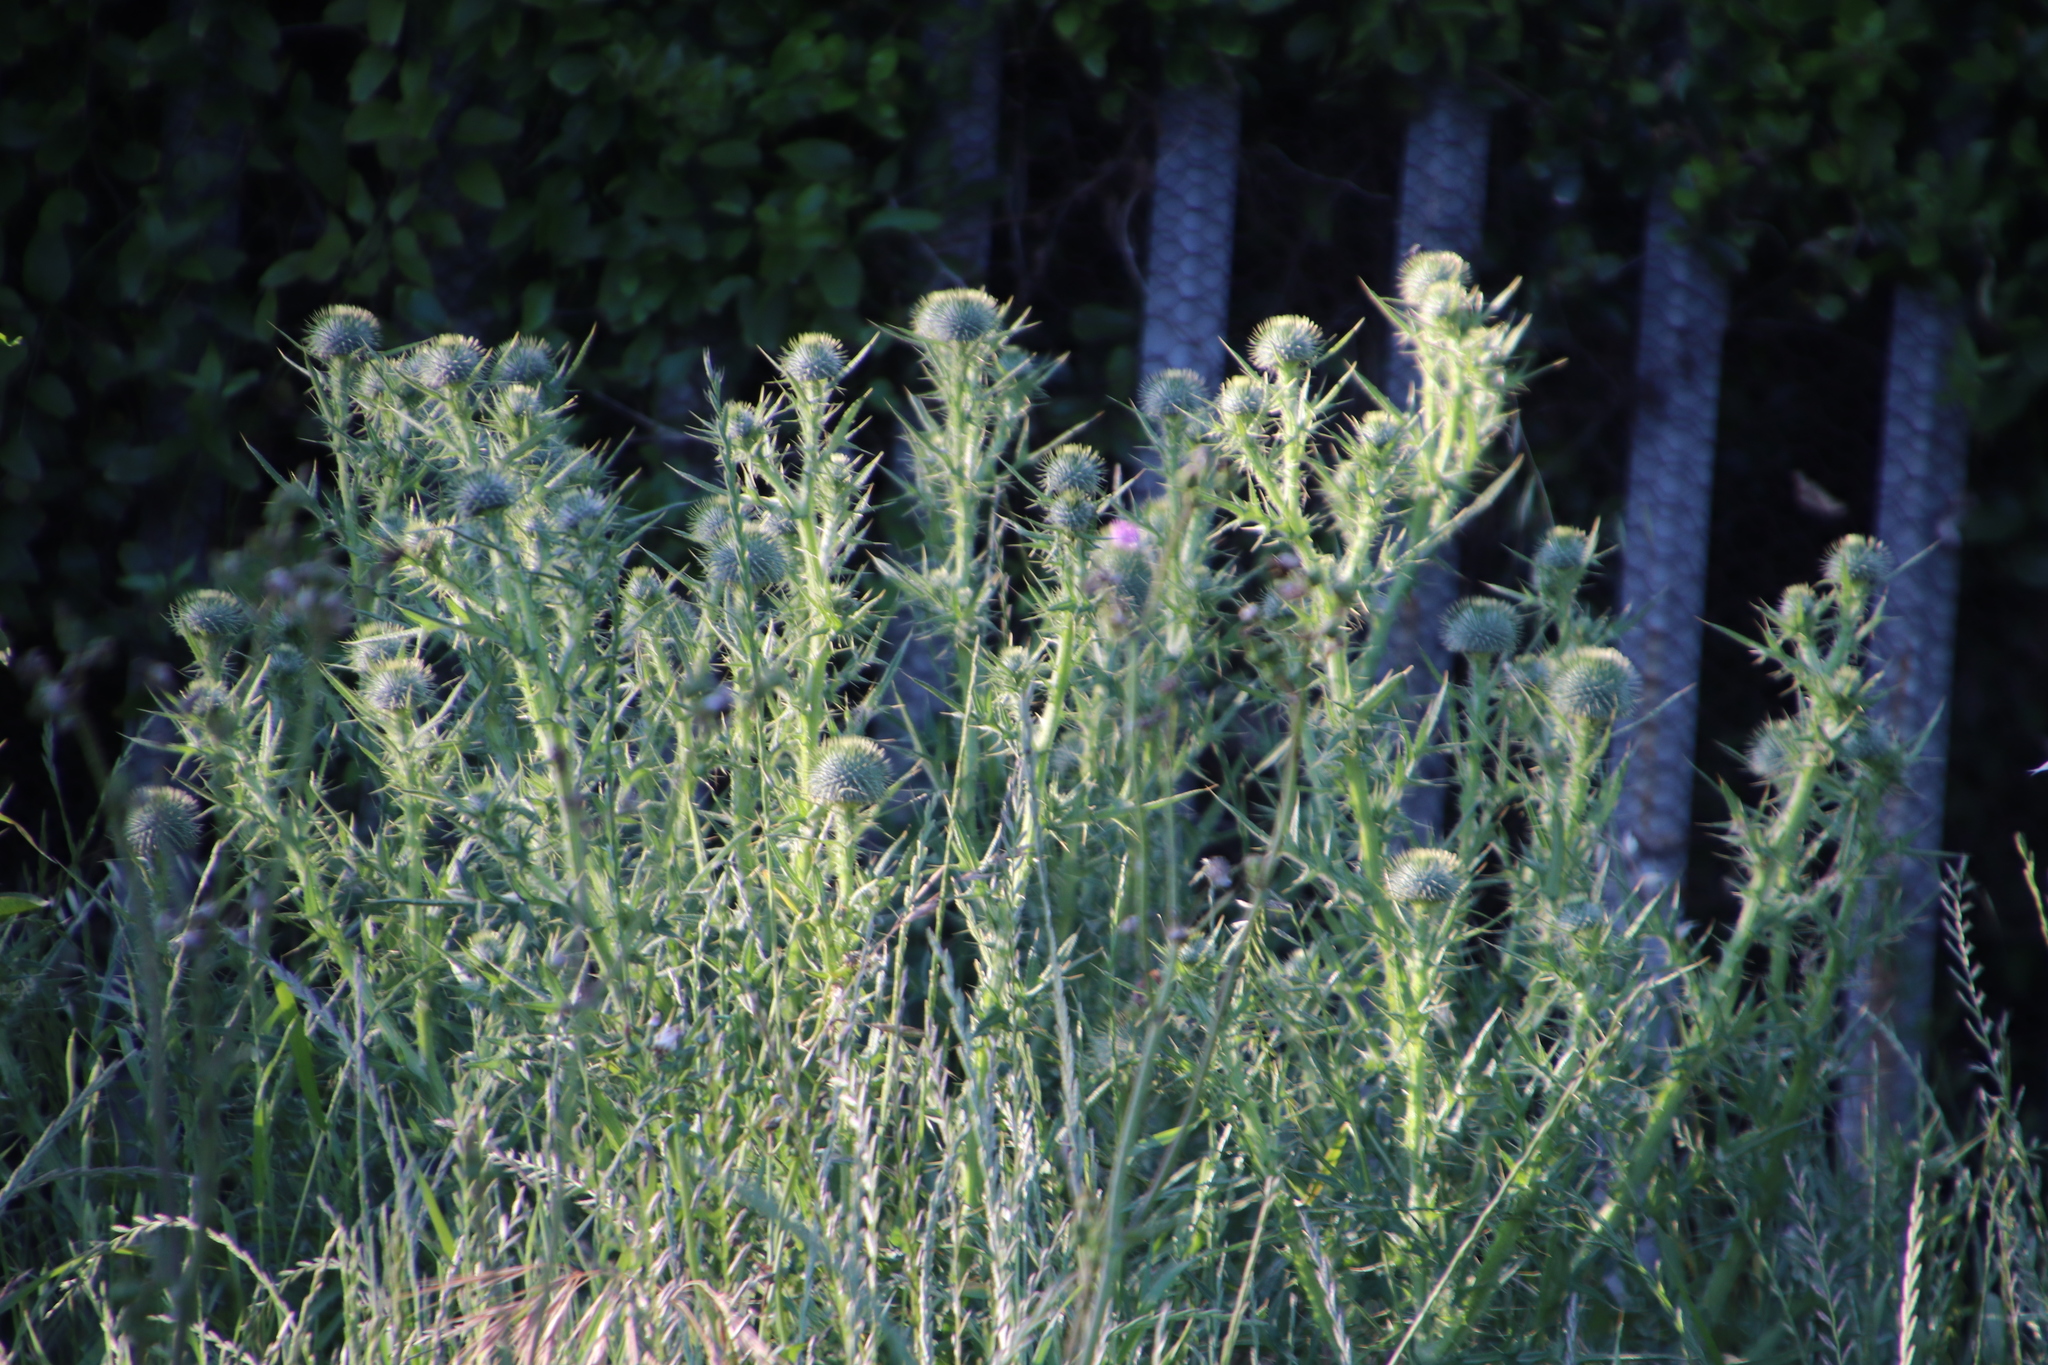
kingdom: Plantae
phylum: Tracheophyta
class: Magnoliopsida
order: Asterales
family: Asteraceae
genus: Cirsium
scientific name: Cirsium vulgare
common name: Bull thistle
